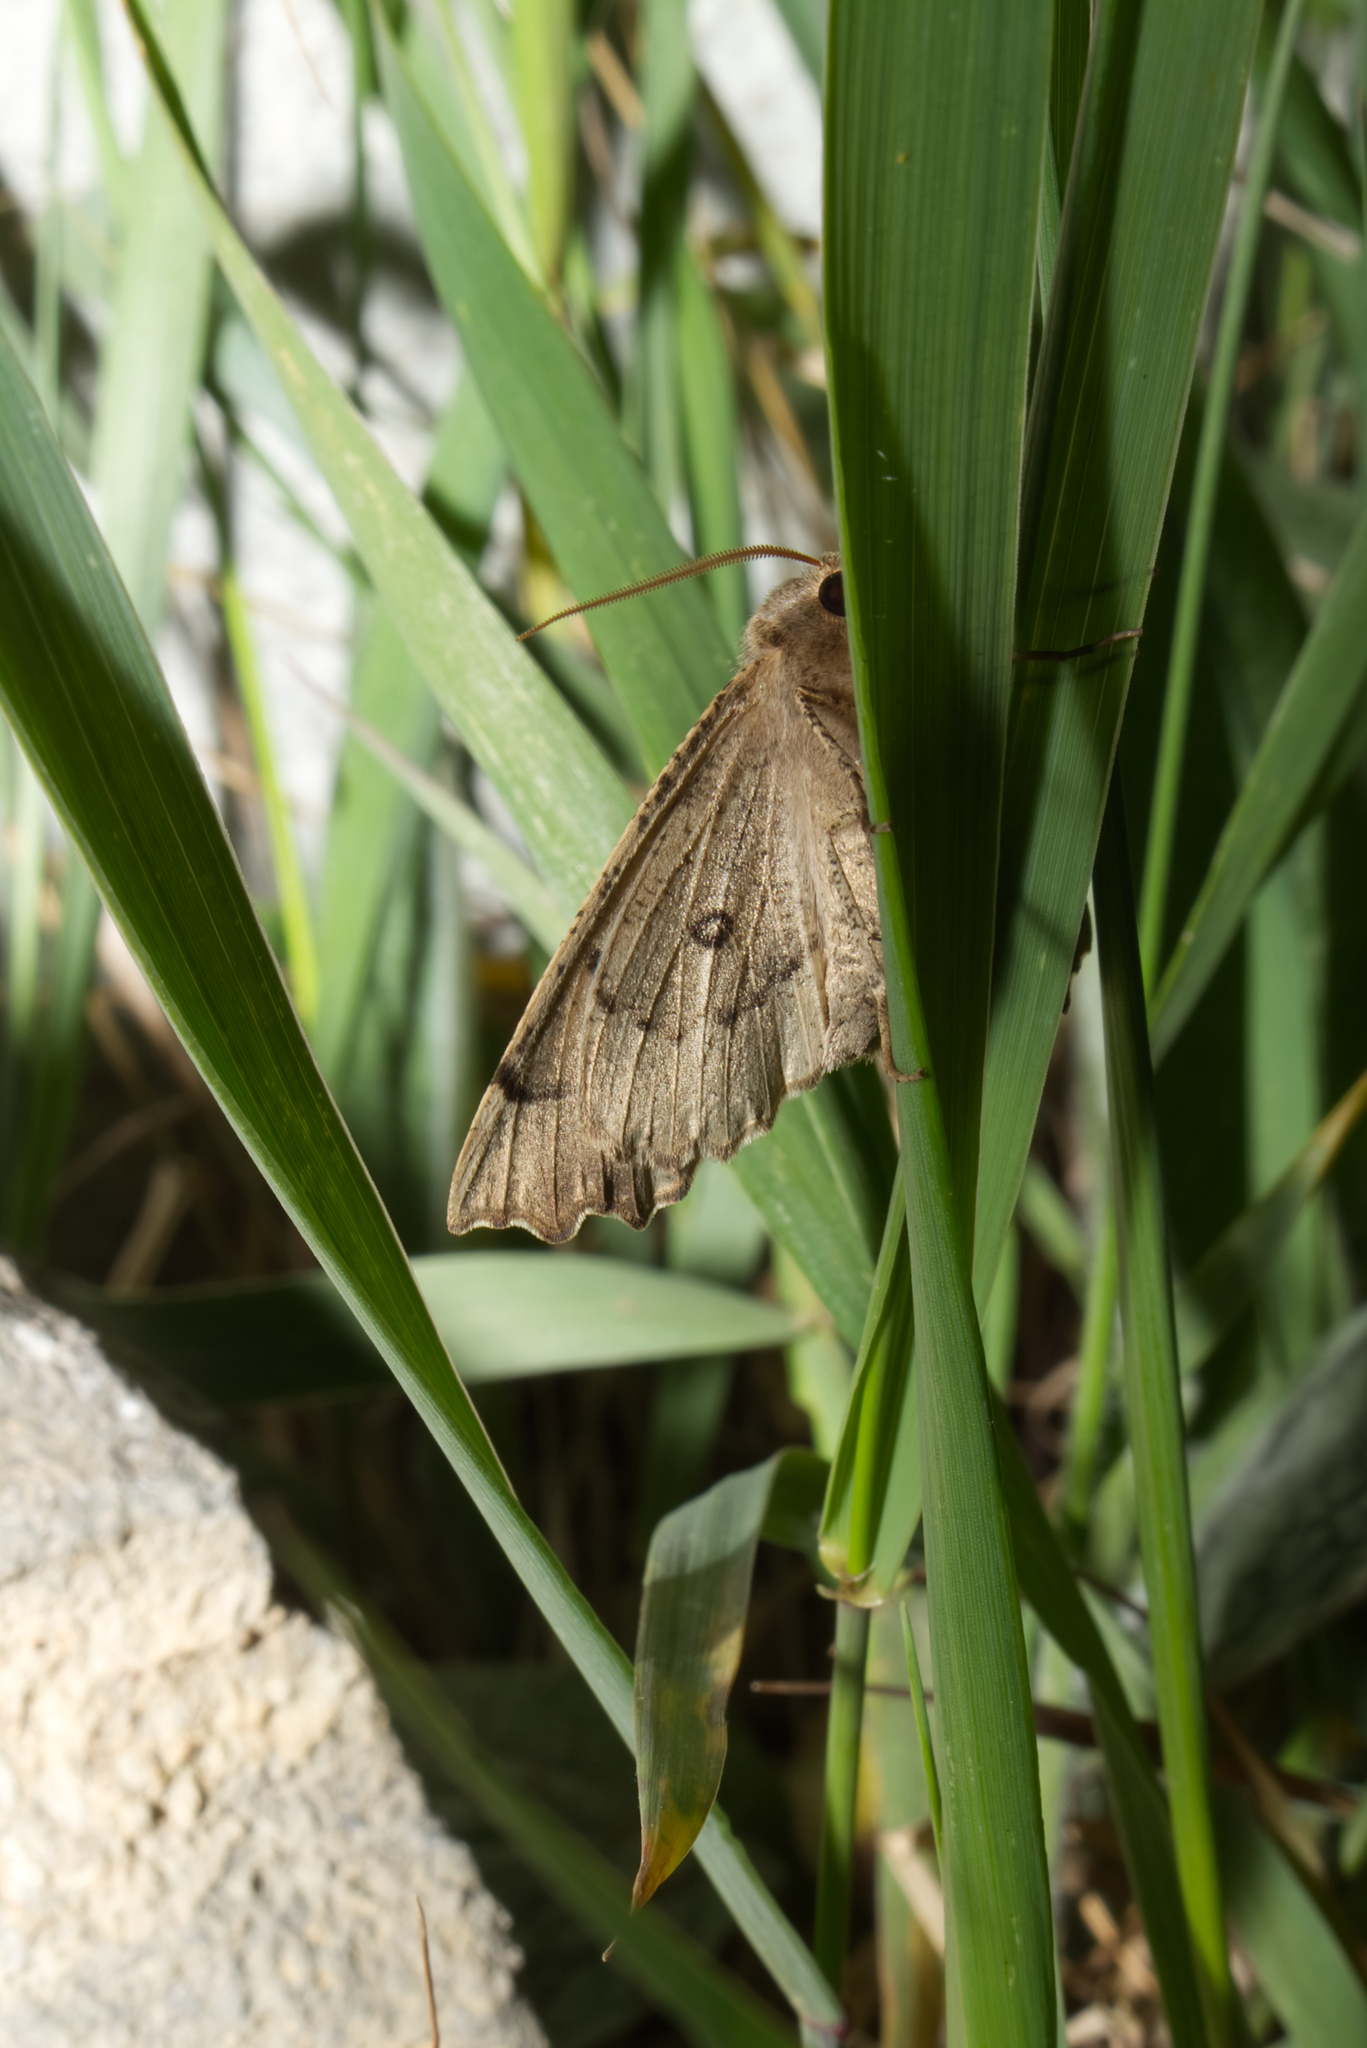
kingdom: Animalia
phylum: Arthropoda
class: Insecta
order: Lepidoptera
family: Geometridae
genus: Odontopera
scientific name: Odontopera bidentata
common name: Scalloped hazel
